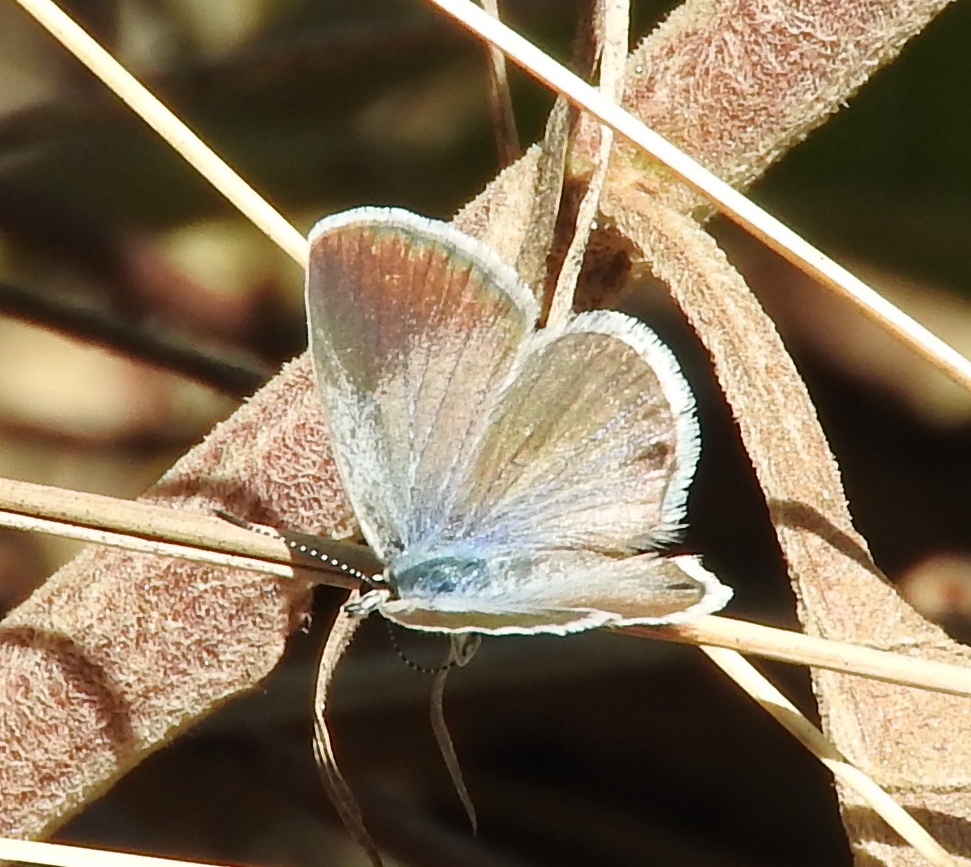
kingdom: Animalia
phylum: Arthropoda
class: Insecta
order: Lepidoptera
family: Lycaenidae
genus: Echinargus
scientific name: Echinargus isola
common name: Reakirt's blue
